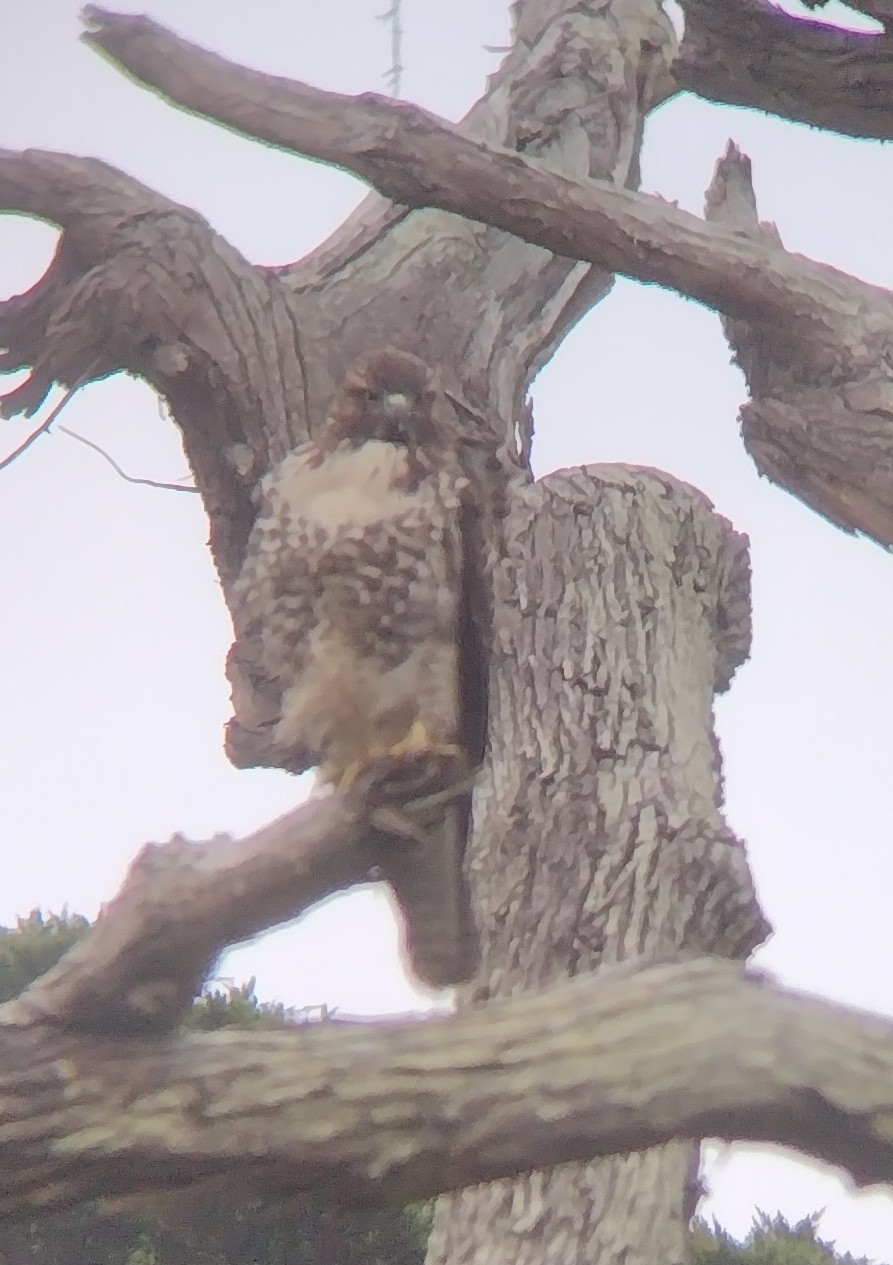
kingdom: Animalia
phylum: Chordata
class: Aves
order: Accipitriformes
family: Accipitridae
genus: Buteo
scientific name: Buteo jamaicensis
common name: Red-tailed hawk
